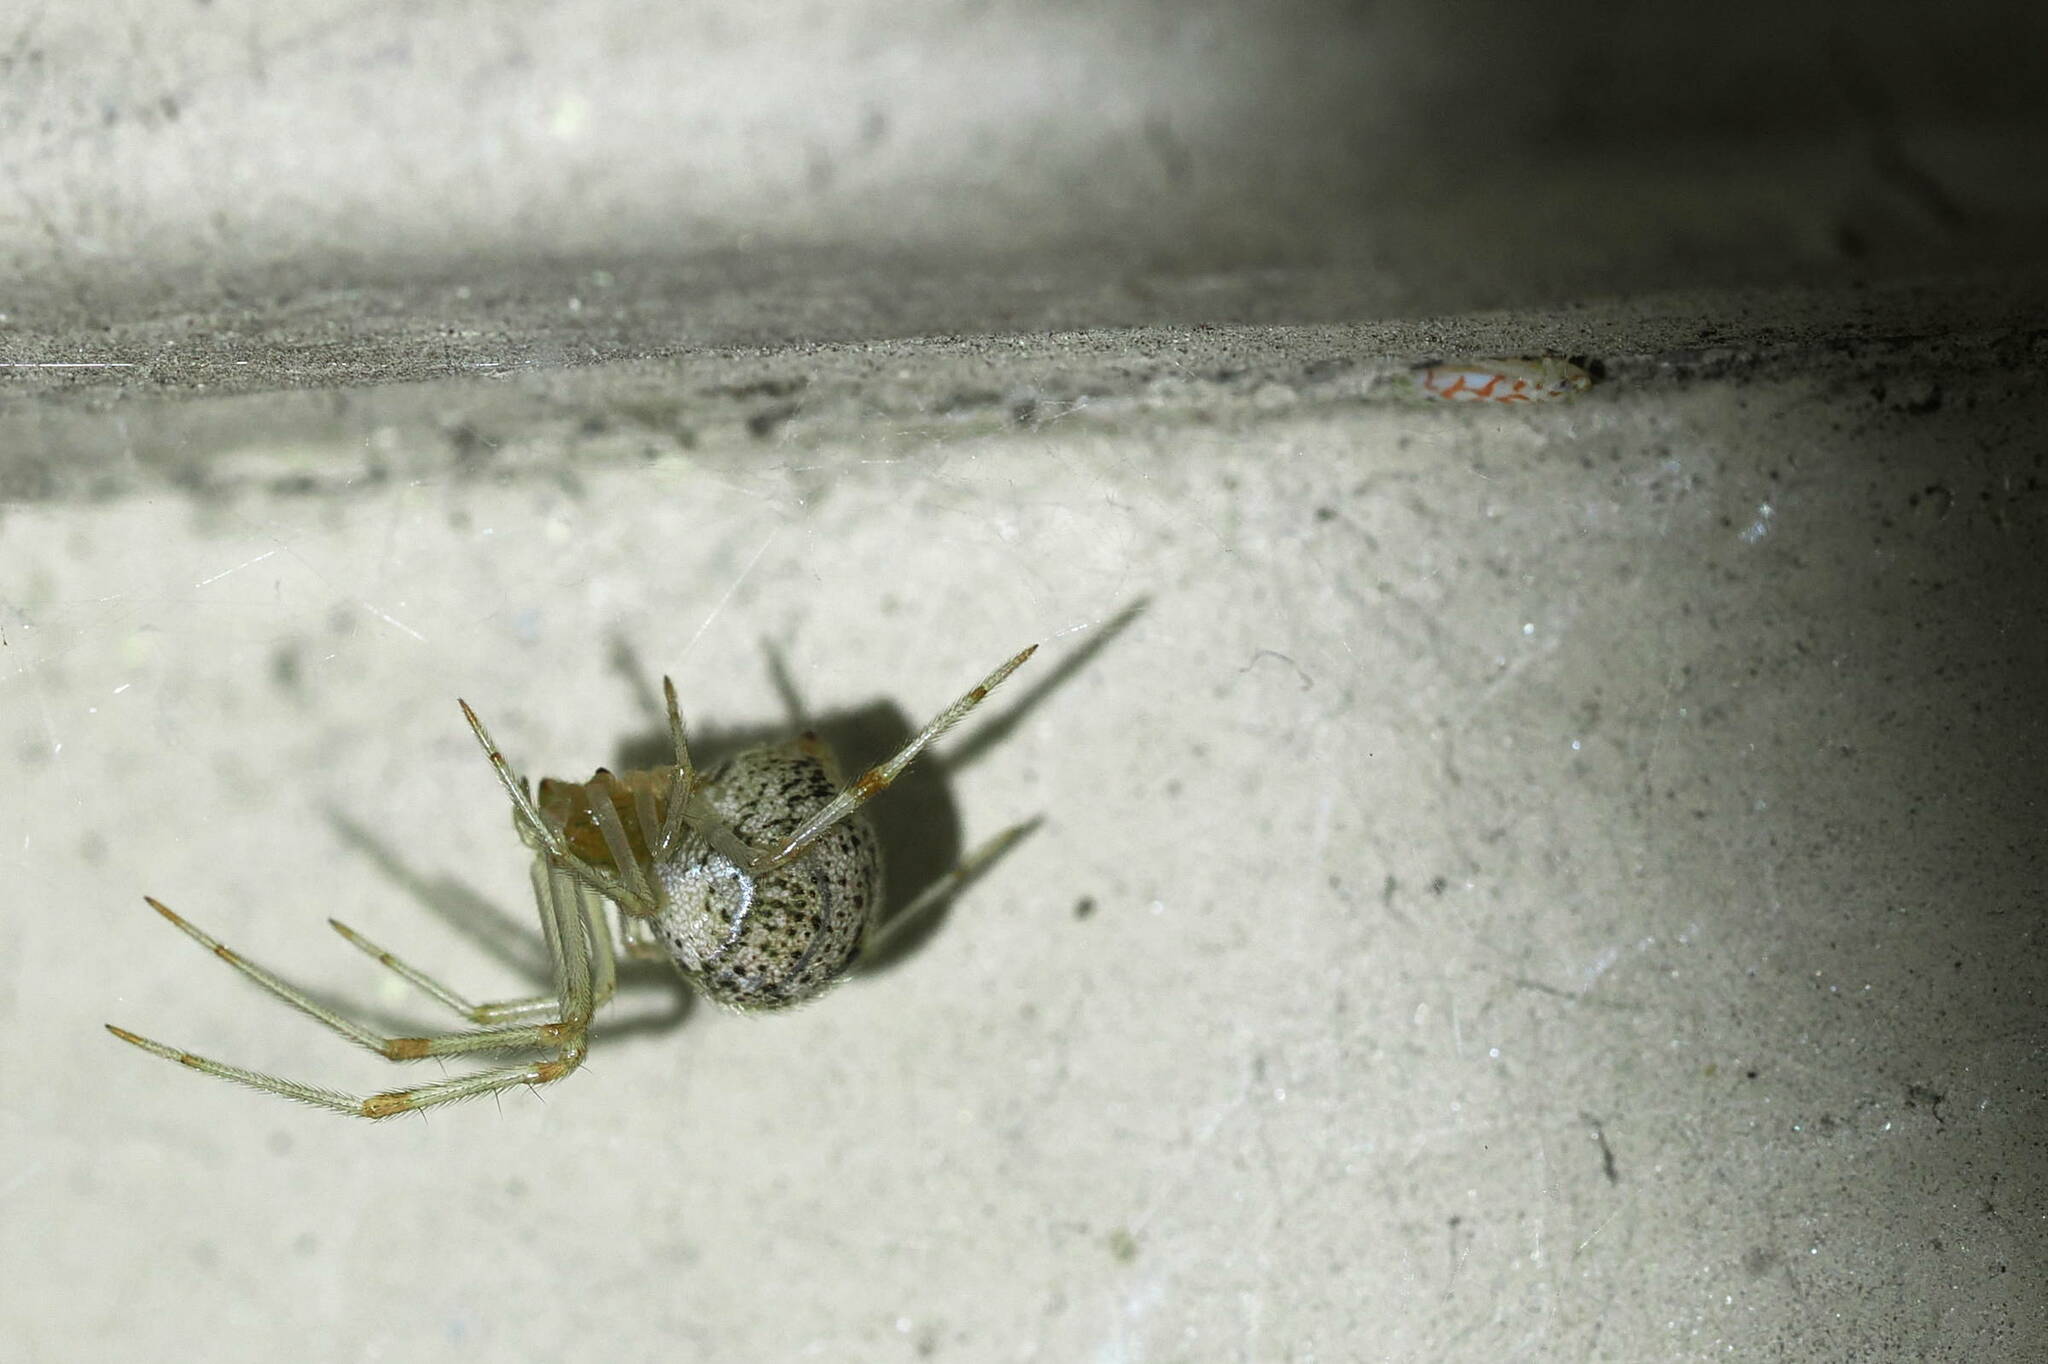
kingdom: Animalia
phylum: Arthropoda
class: Arachnida
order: Araneae
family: Theridiidae
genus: Parasteatoda
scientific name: Parasteatoda tepidariorum
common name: Common house spider
